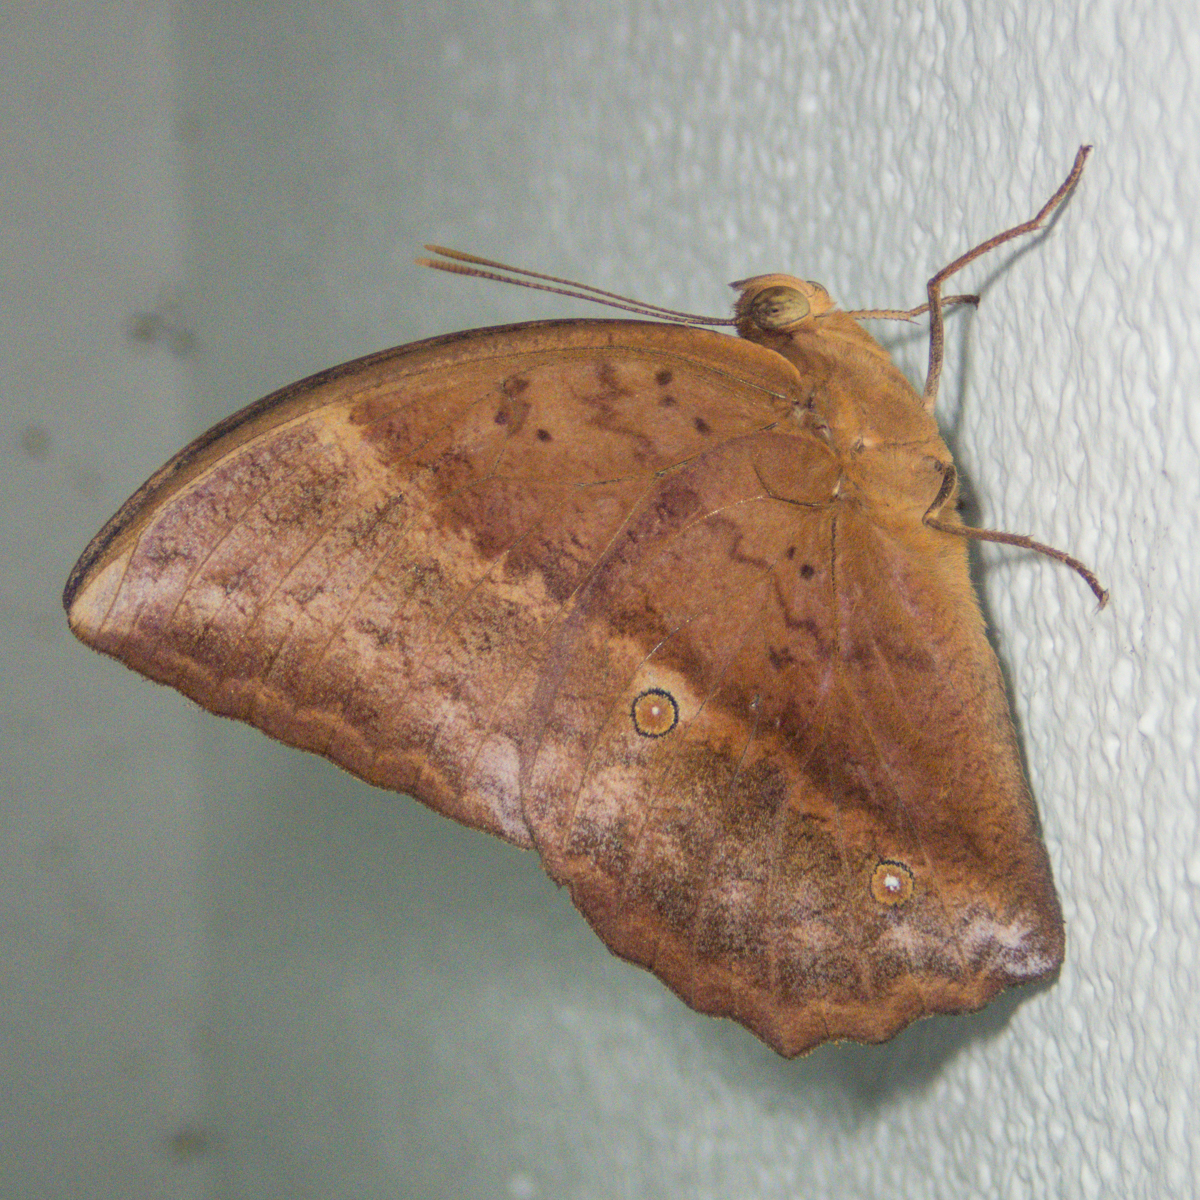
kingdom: Animalia
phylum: Arthropoda
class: Insecta
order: Lepidoptera
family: Nymphalidae
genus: Discophora
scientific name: Discophora sondaica
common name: Common duffer
